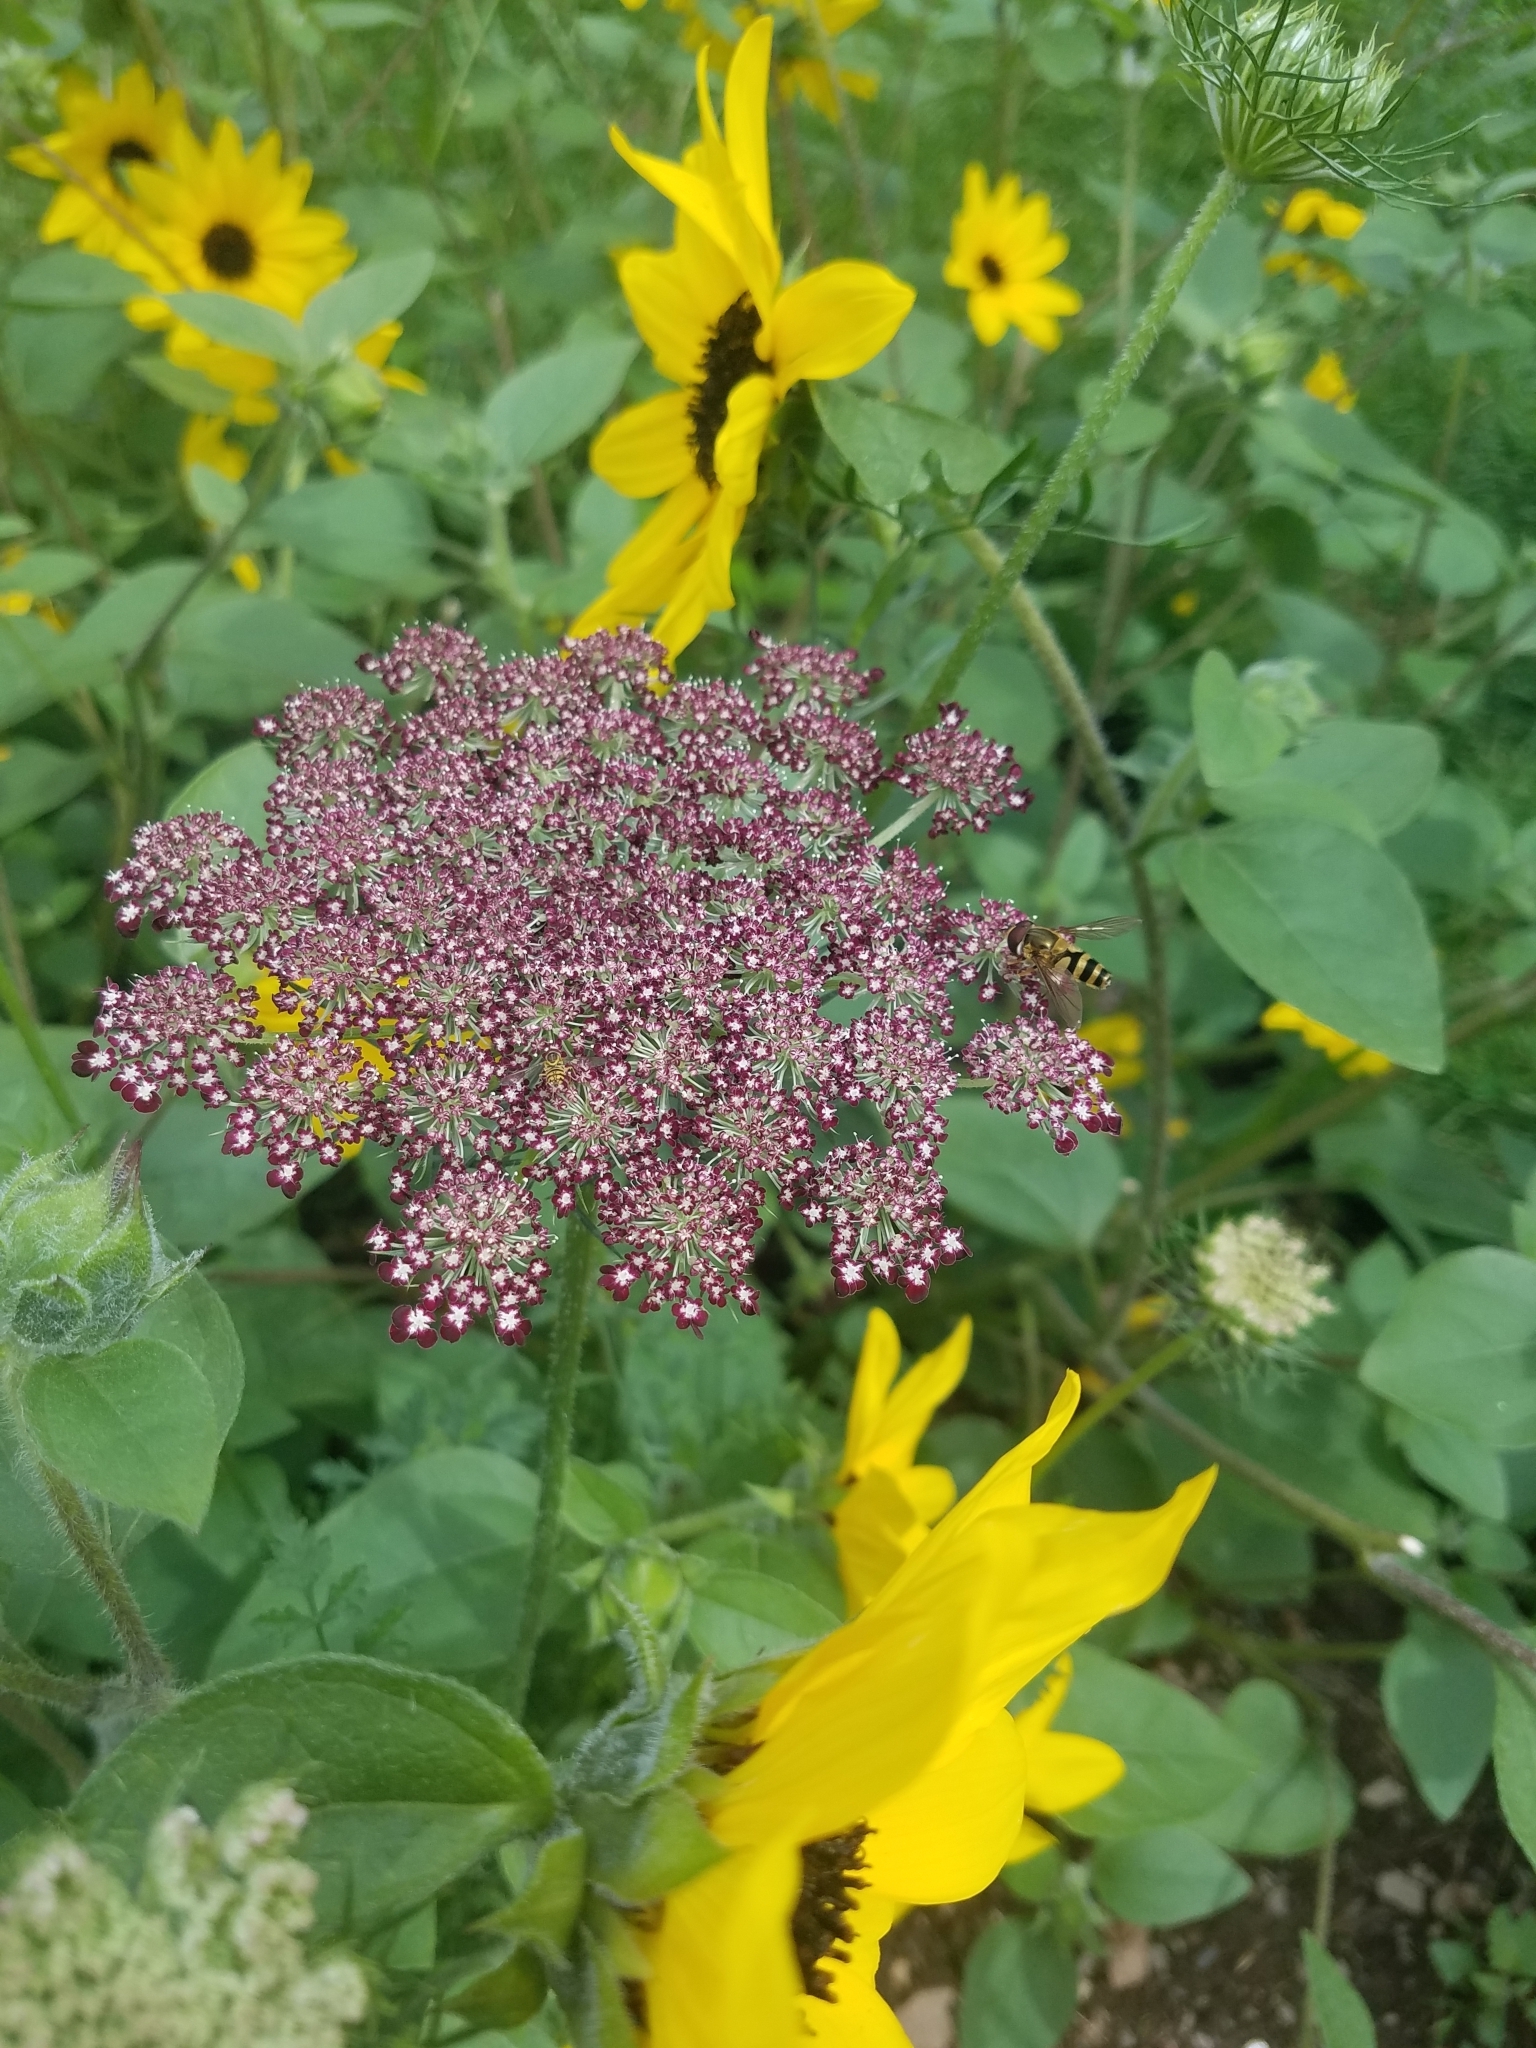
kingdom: Plantae
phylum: Tracheophyta
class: Magnoliopsida
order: Apiales
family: Apiaceae
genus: Daucus
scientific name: Daucus carota
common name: Wild carrot
